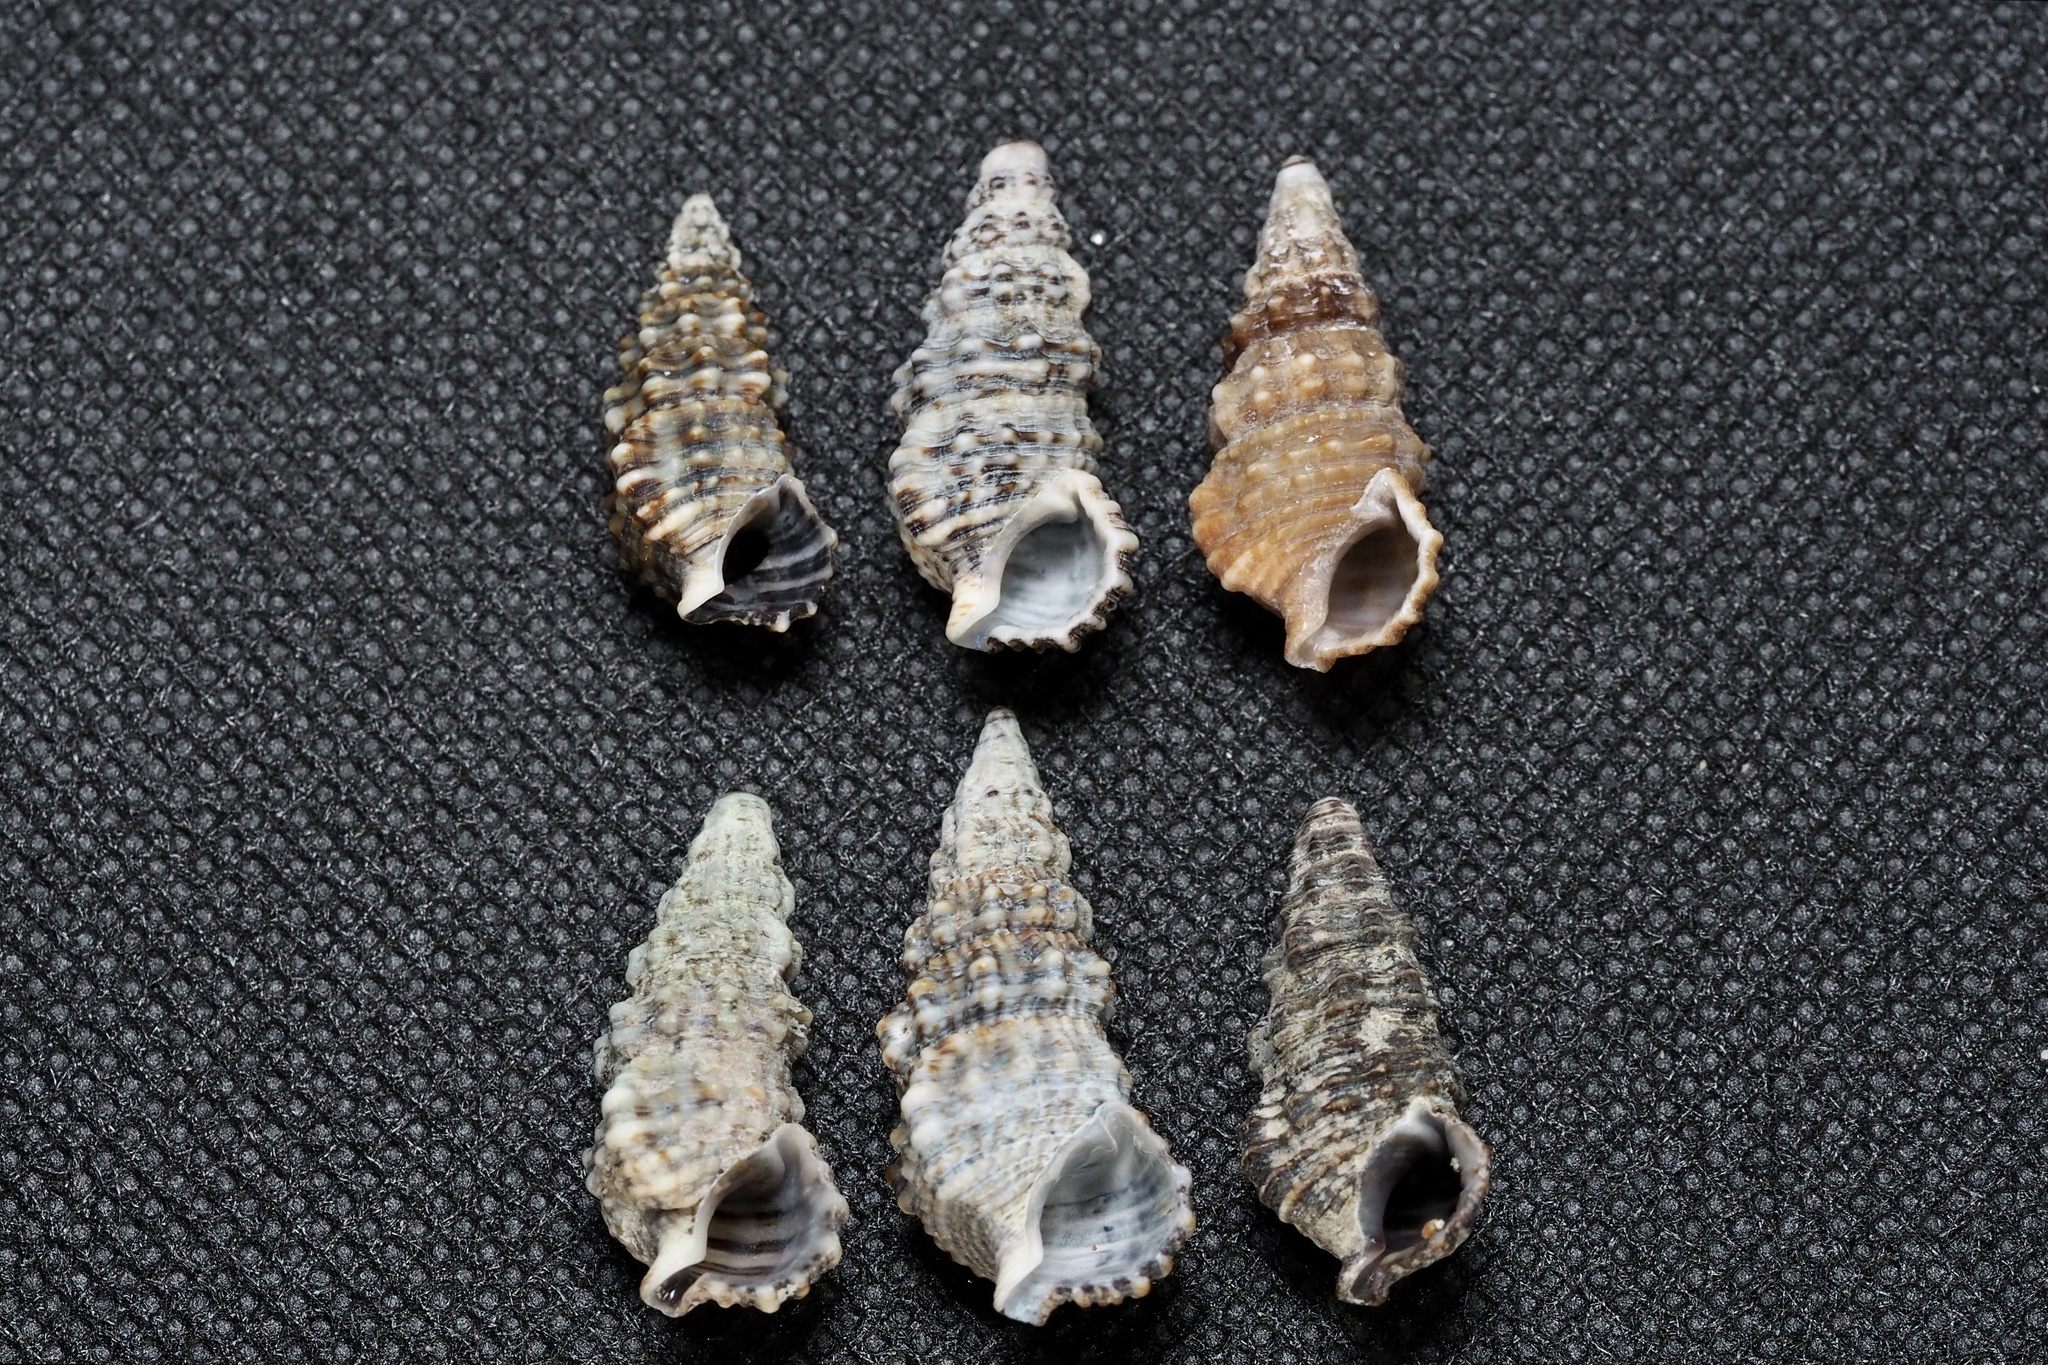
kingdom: Animalia
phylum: Mollusca
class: Gastropoda
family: Cerithiidae
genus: Cerithium
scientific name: Cerithium dialeucum
